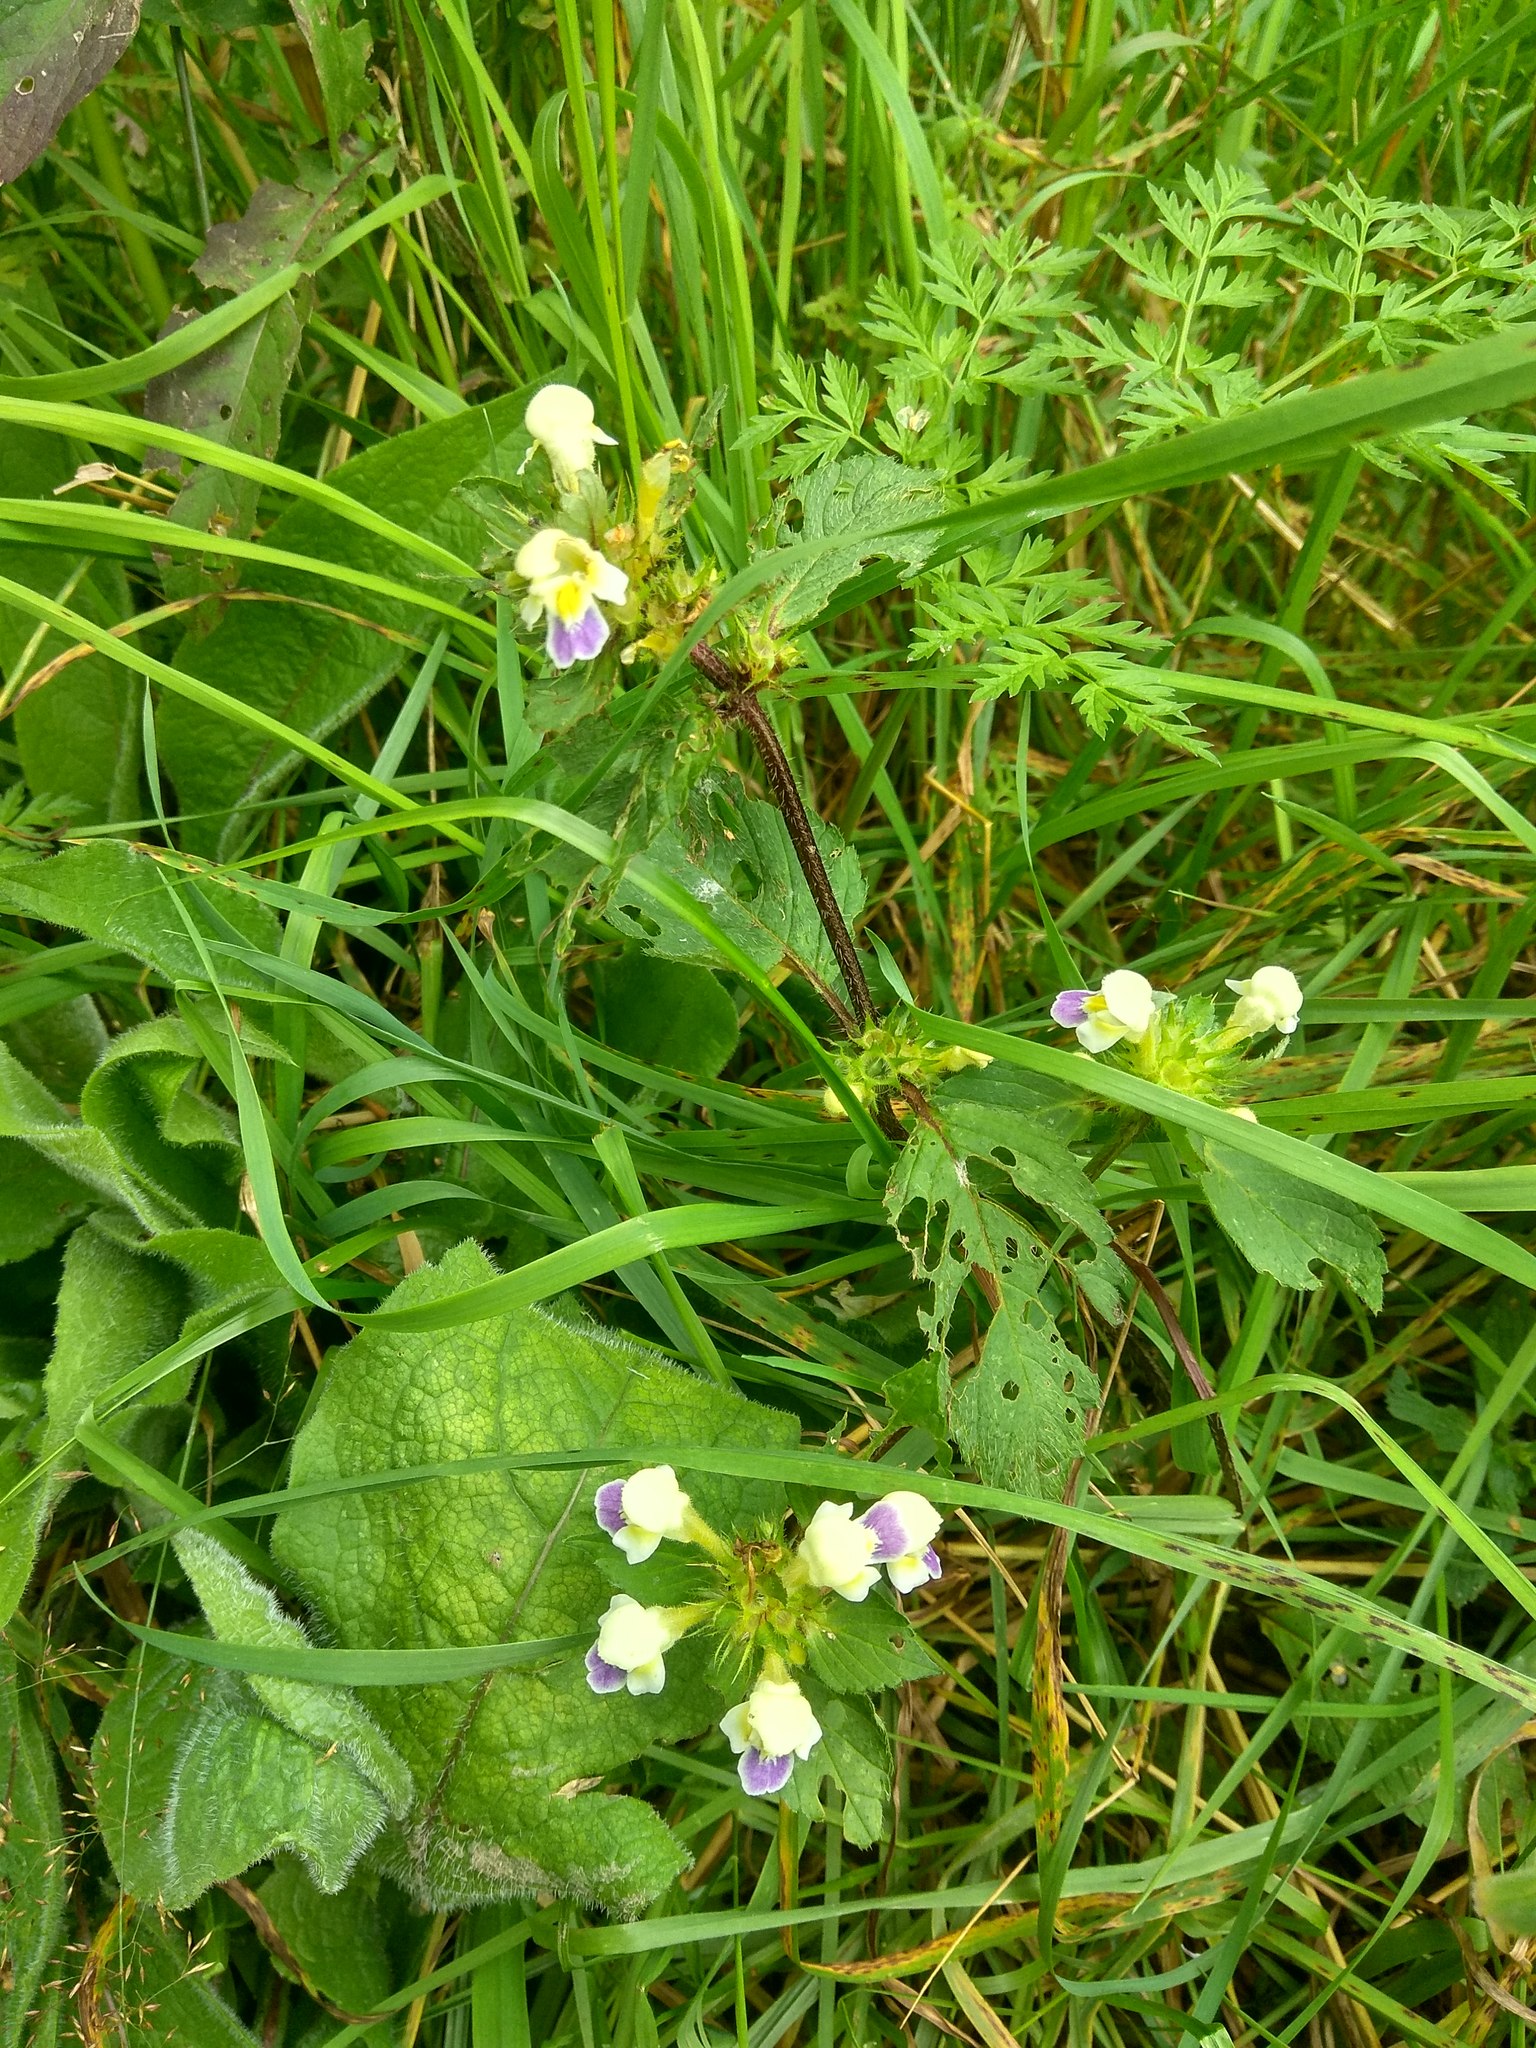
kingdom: Plantae
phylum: Tracheophyta
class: Magnoliopsida
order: Lamiales
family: Lamiaceae
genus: Galeopsis
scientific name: Galeopsis speciosa
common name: Large-flowered hemp-nettle
